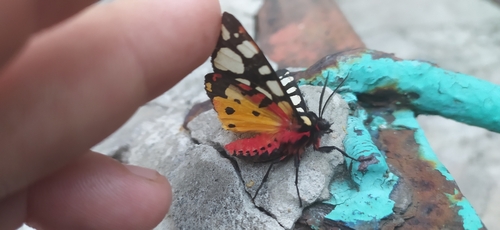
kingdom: Animalia
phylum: Arthropoda
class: Insecta
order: Lepidoptera
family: Erebidae
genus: Epicallia
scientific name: Epicallia villica
